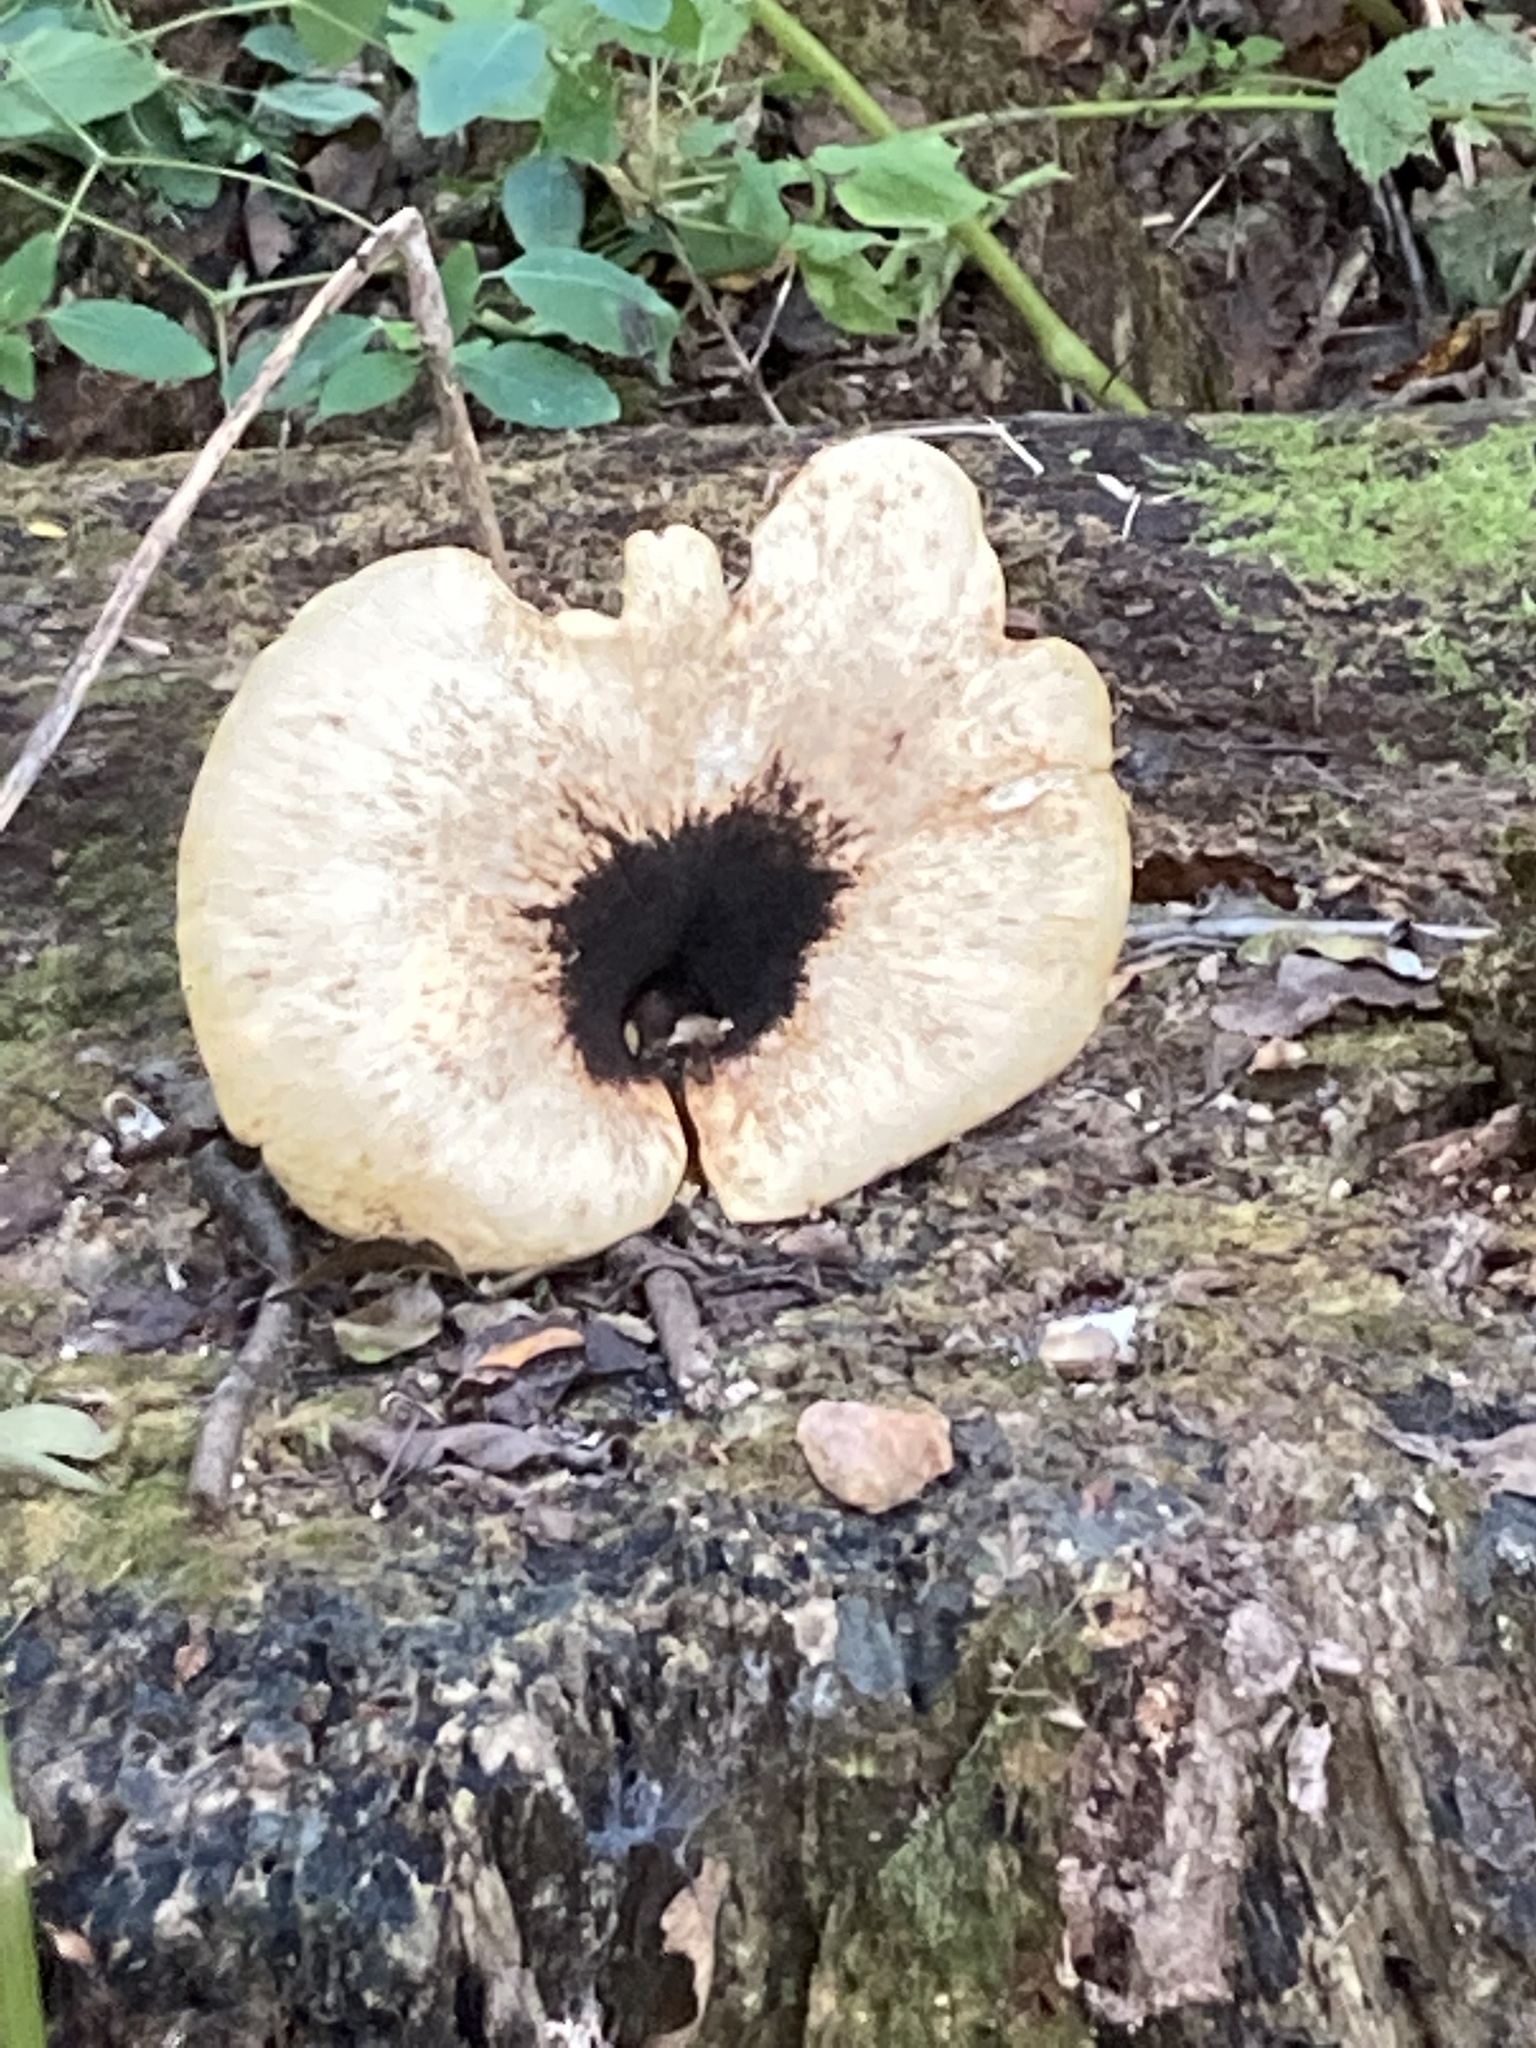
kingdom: Fungi
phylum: Basidiomycota
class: Agaricomycetes
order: Polyporales
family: Polyporaceae
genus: Cerioporus
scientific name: Cerioporus squamosus
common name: Dryad's saddle
